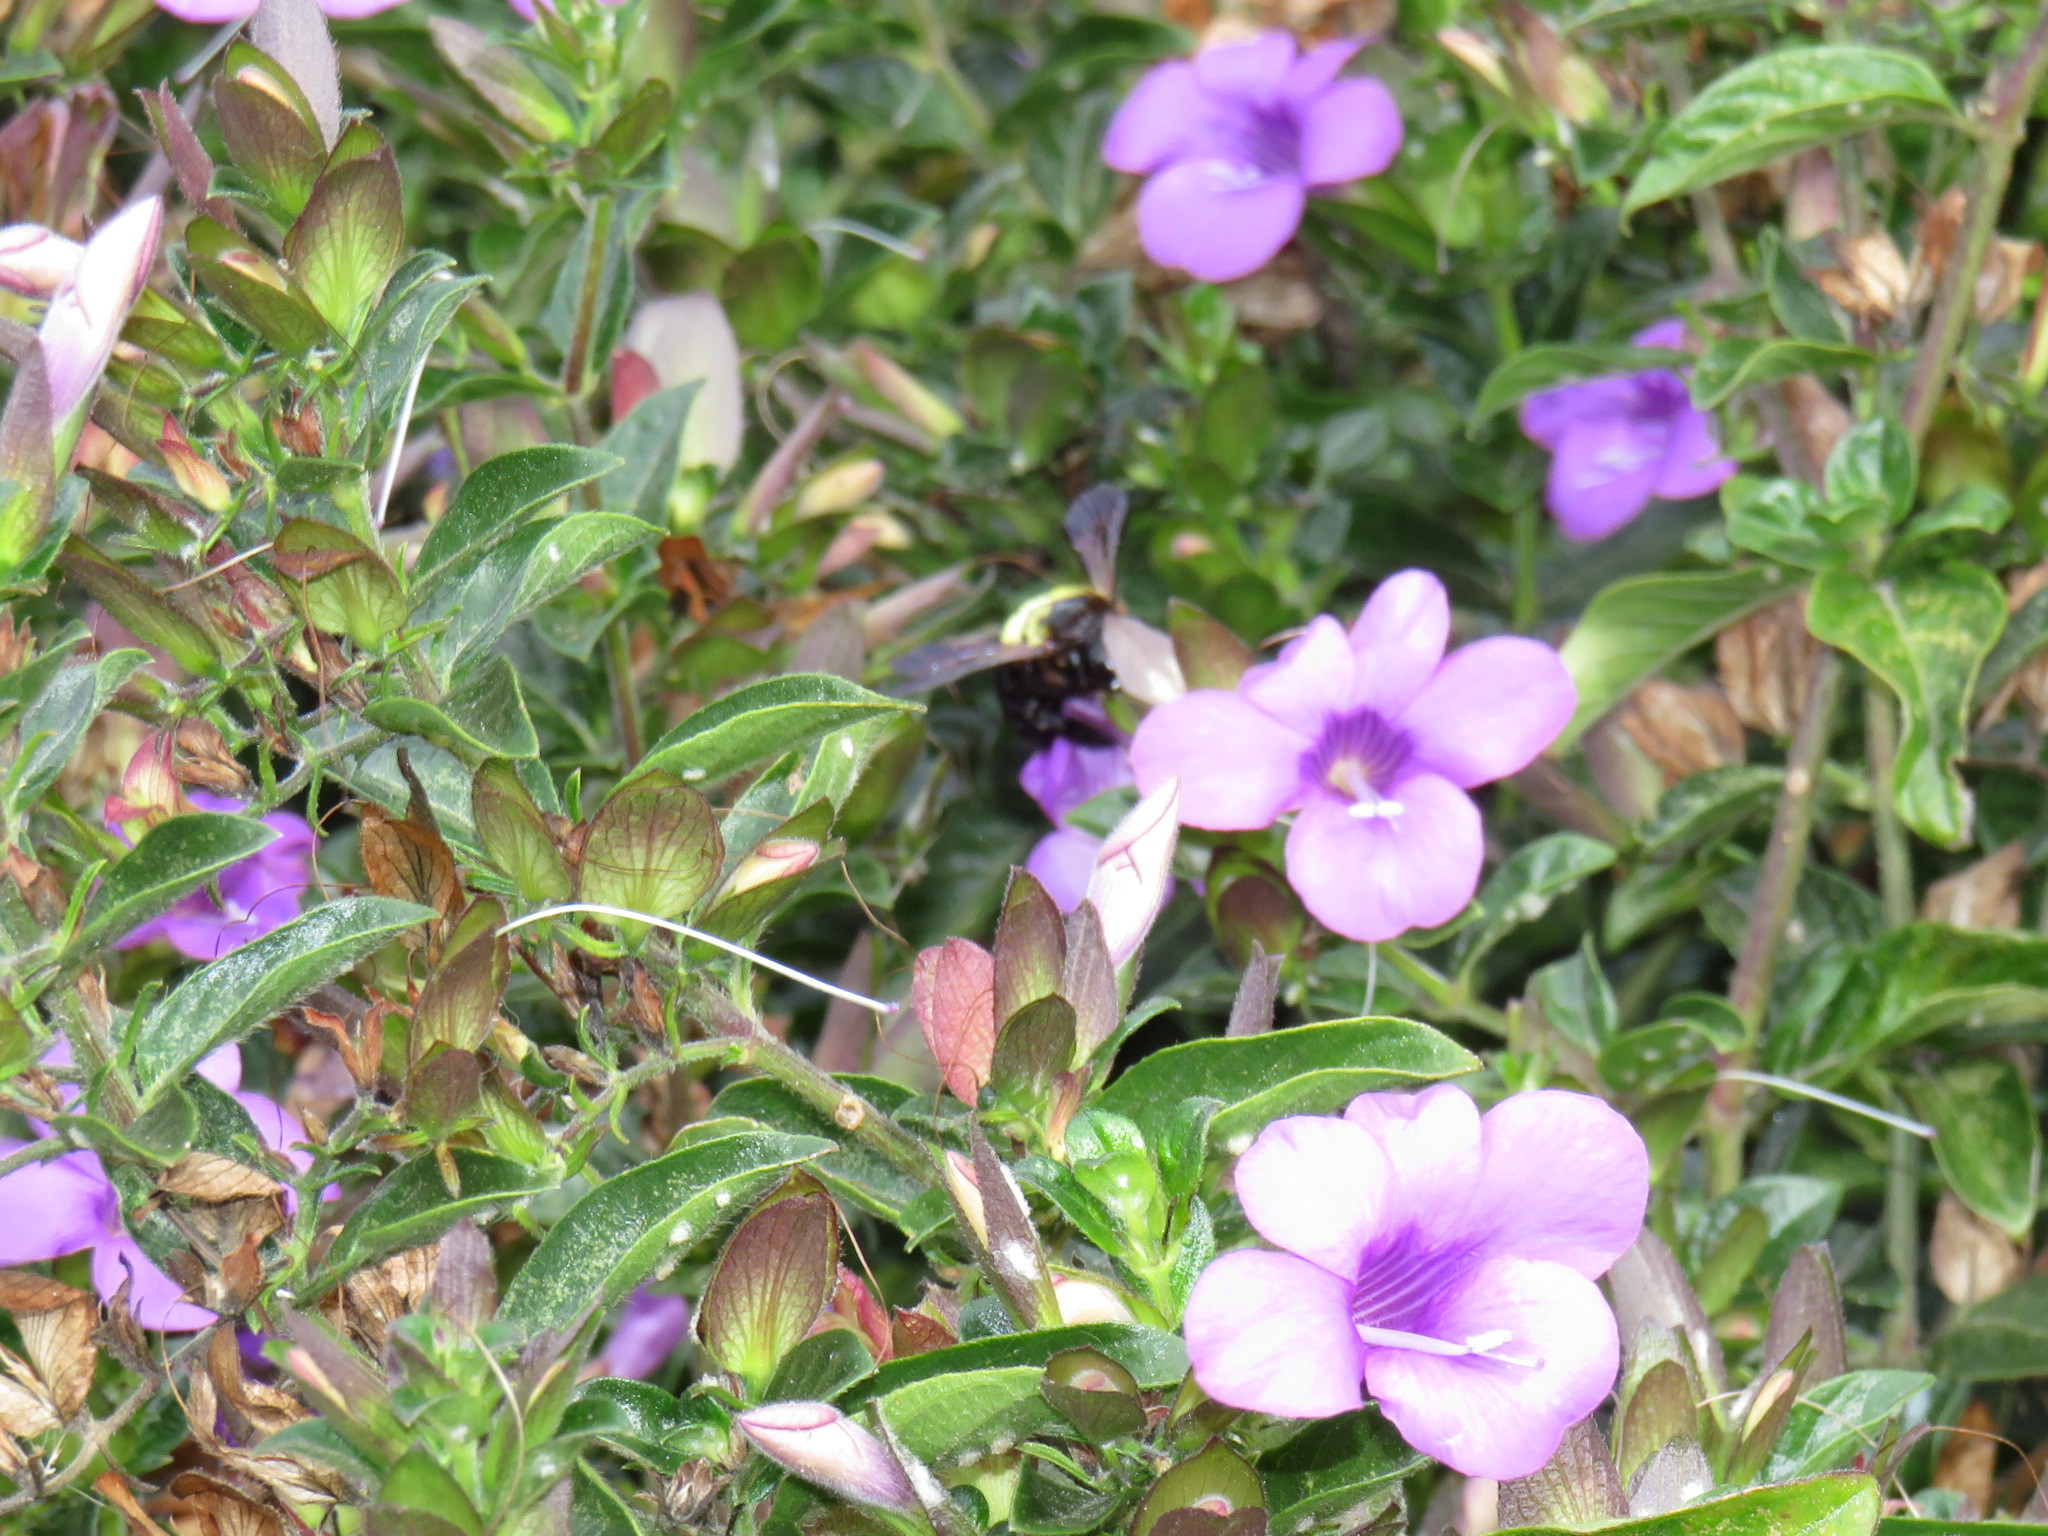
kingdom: Animalia
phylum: Arthropoda
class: Insecta
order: Hymenoptera
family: Apidae
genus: Xylocopa
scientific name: Xylocopa caffra
